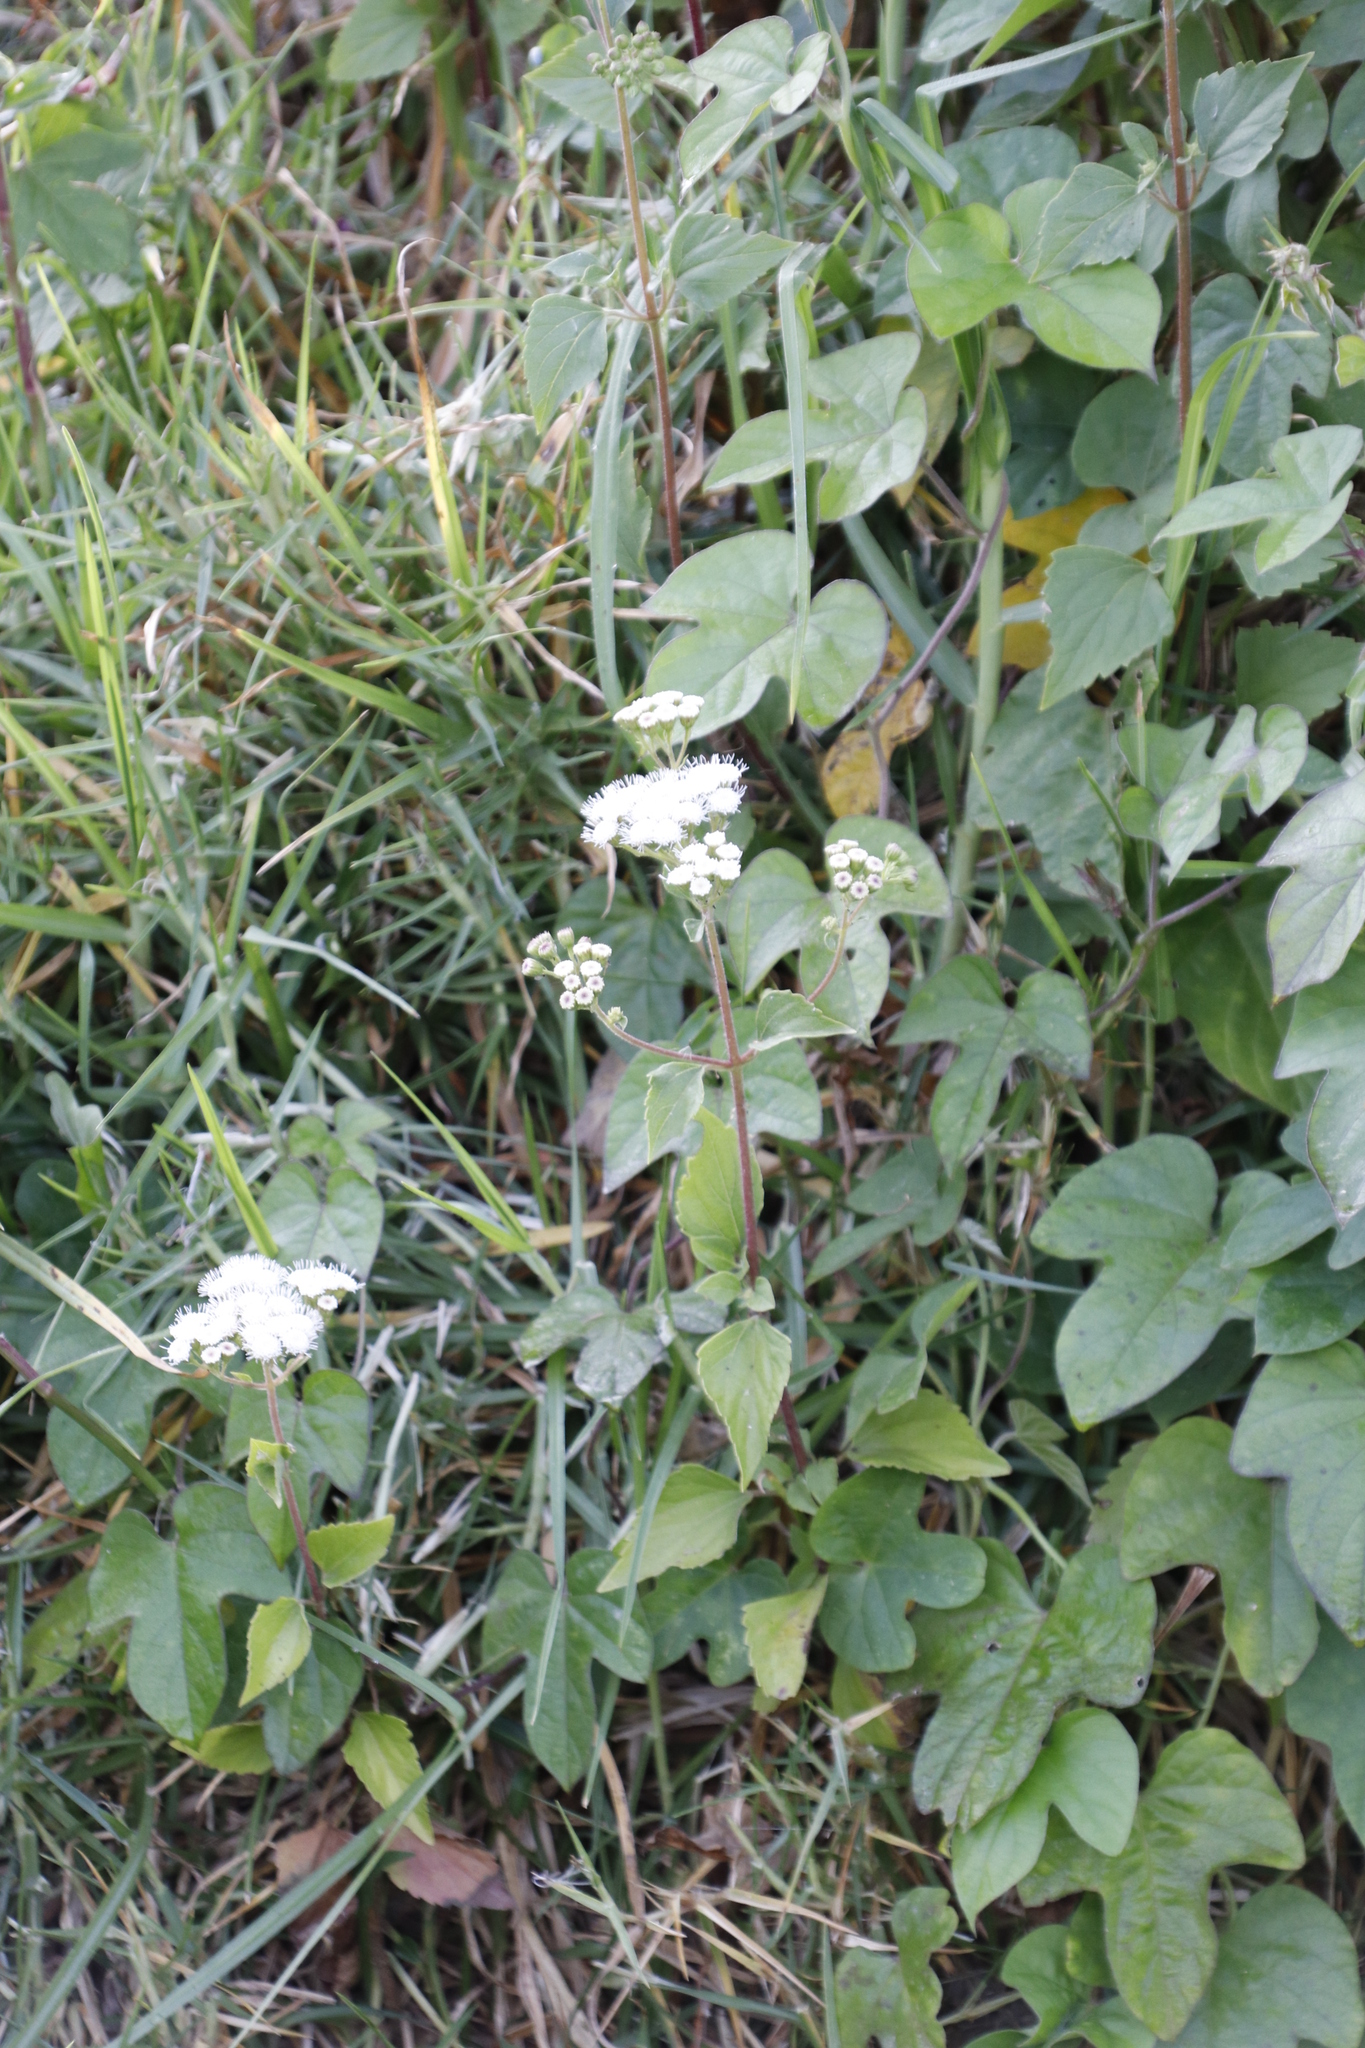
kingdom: Plantae
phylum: Tracheophyta
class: Magnoliopsida
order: Asterales
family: Asteraceae
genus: Ageratina
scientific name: Ageratina adenophora
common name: Sticky snakeroot
